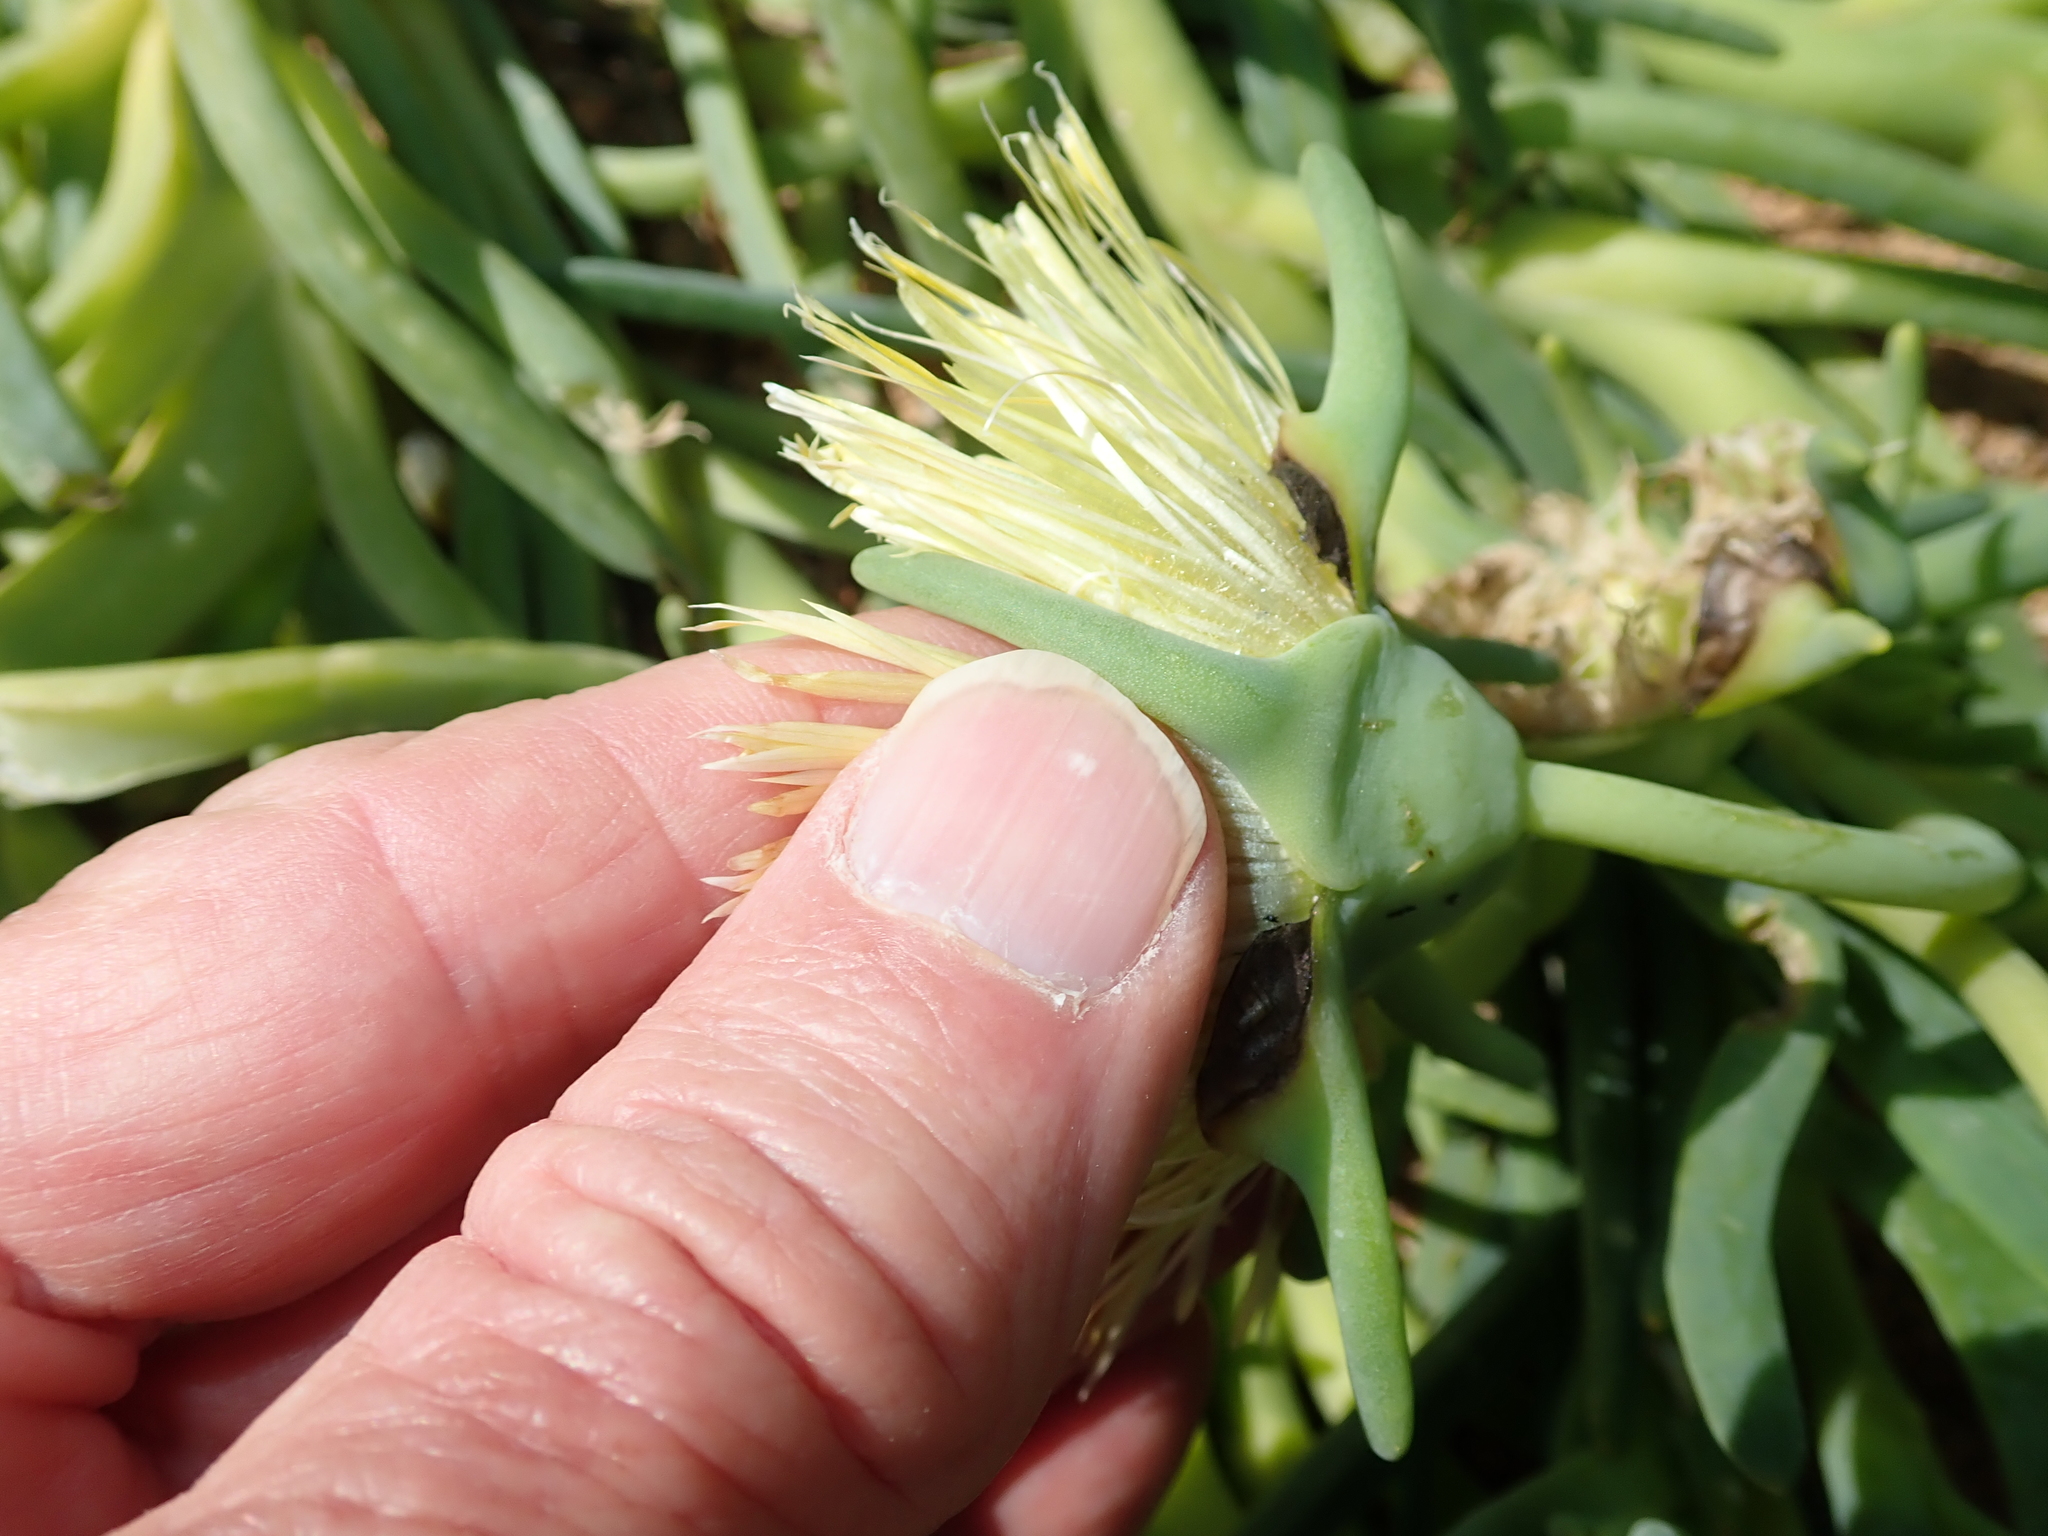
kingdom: Plantae
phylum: Tracheophyta
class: Magnoliopsida
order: Caryophyllales
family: Aizoaceae
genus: Conicosia
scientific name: Conicosia elongata
